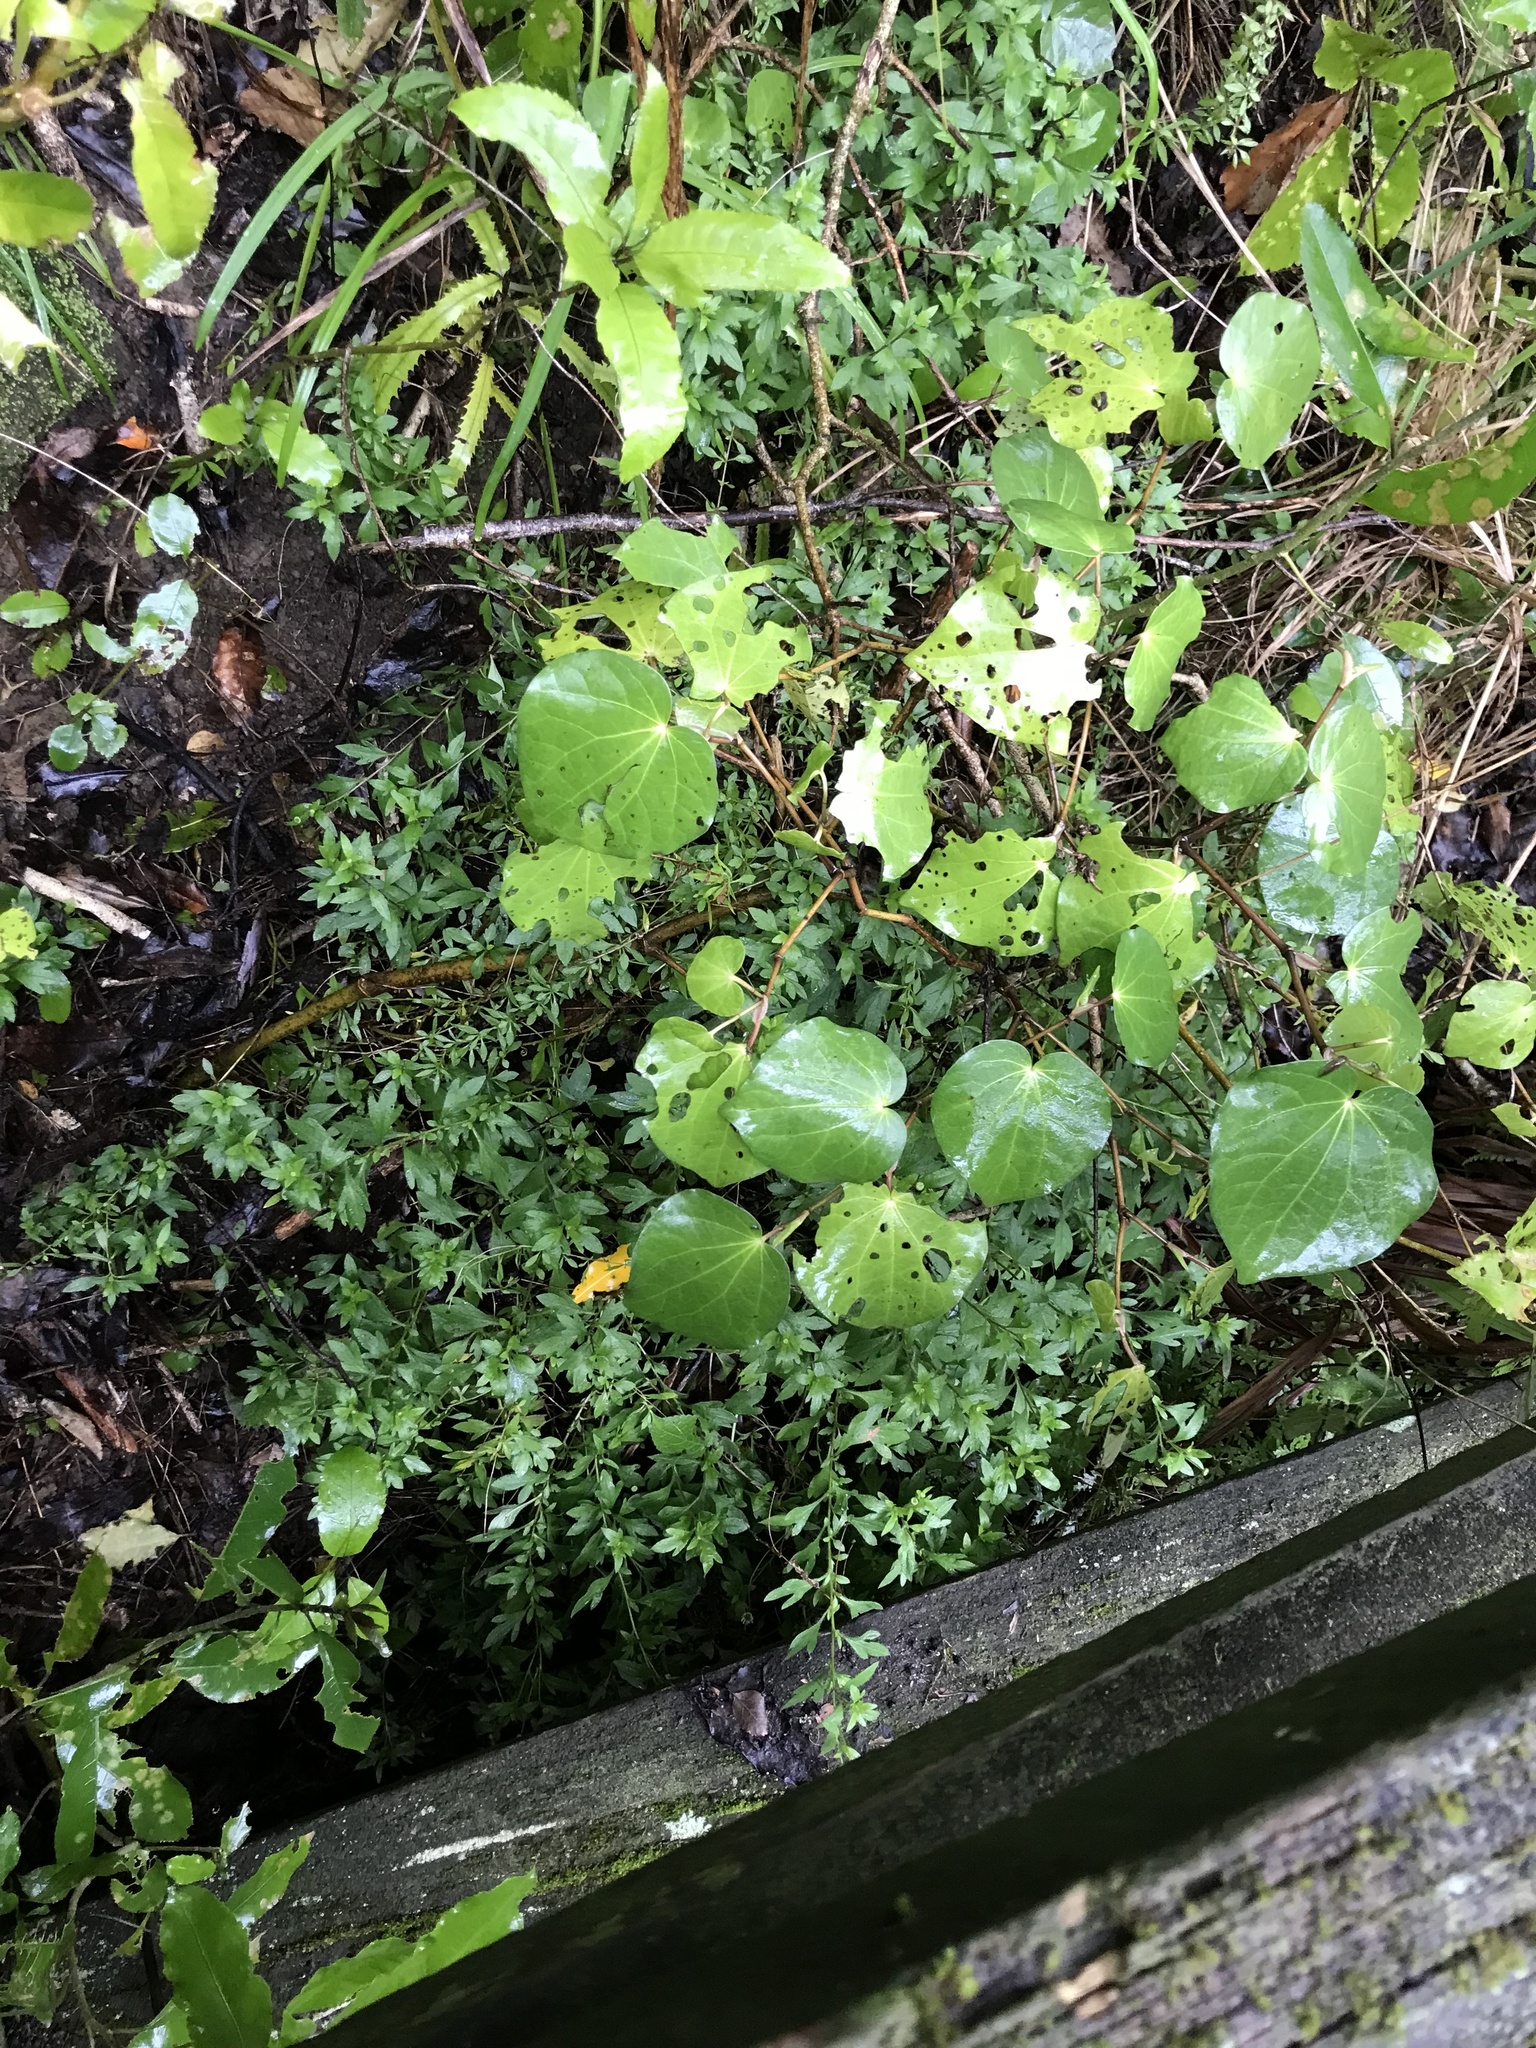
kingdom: Plantae
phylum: Tracheophyta
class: Magnoliopsida
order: Asterales
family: Asteraceae
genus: Erigeron
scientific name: Erigeron karvinskianus
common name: Mexican fleabane
